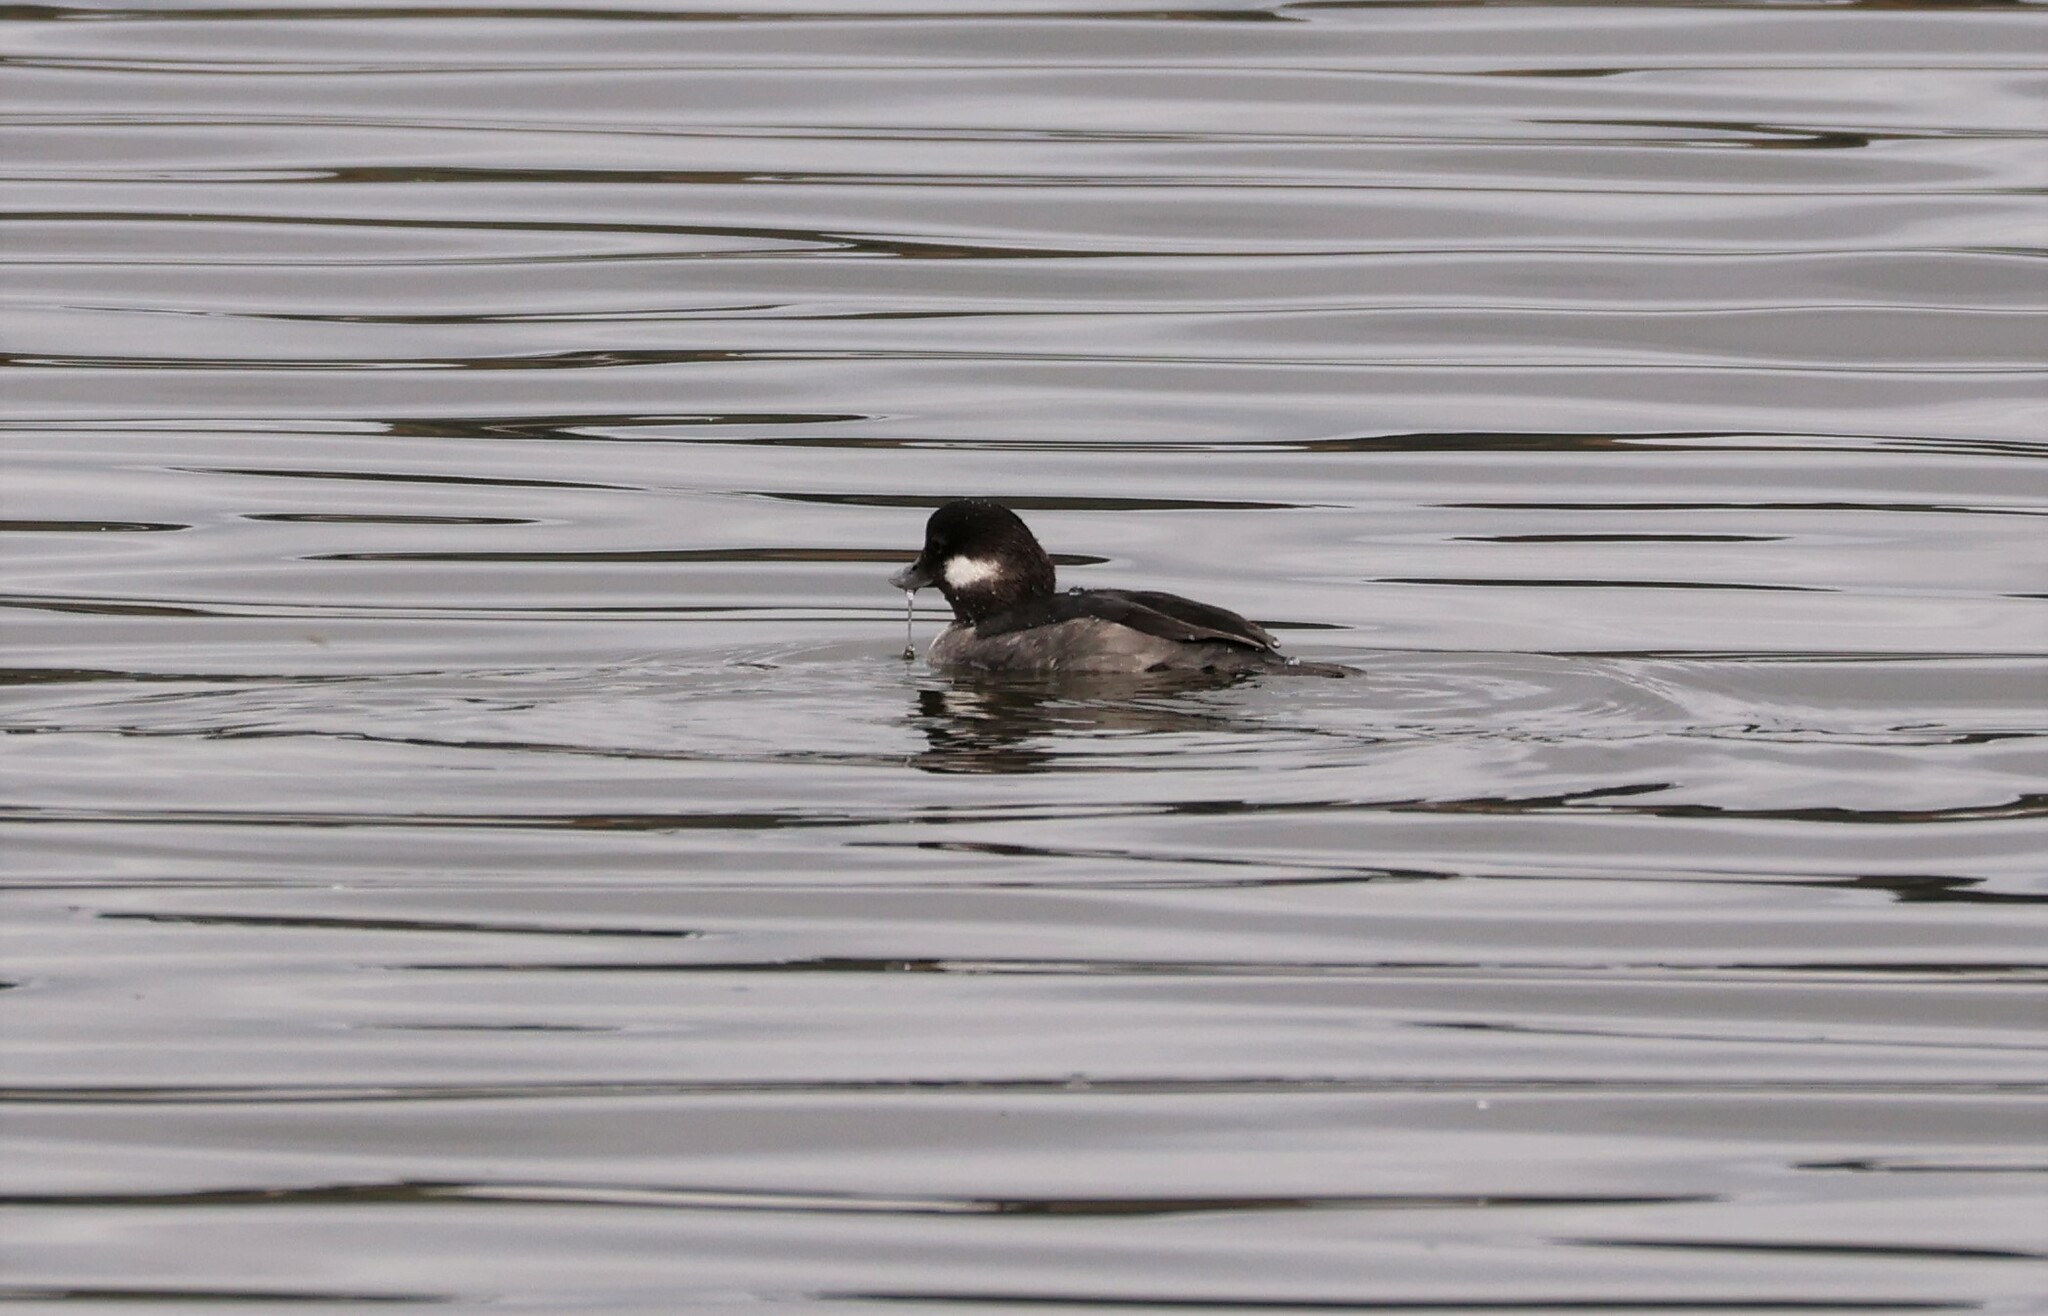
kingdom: Animalia
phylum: Chordata
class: Aves
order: Anseriformes
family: Anatidae
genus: Bucephala
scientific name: Bucephala albeola
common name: Bufflehead
